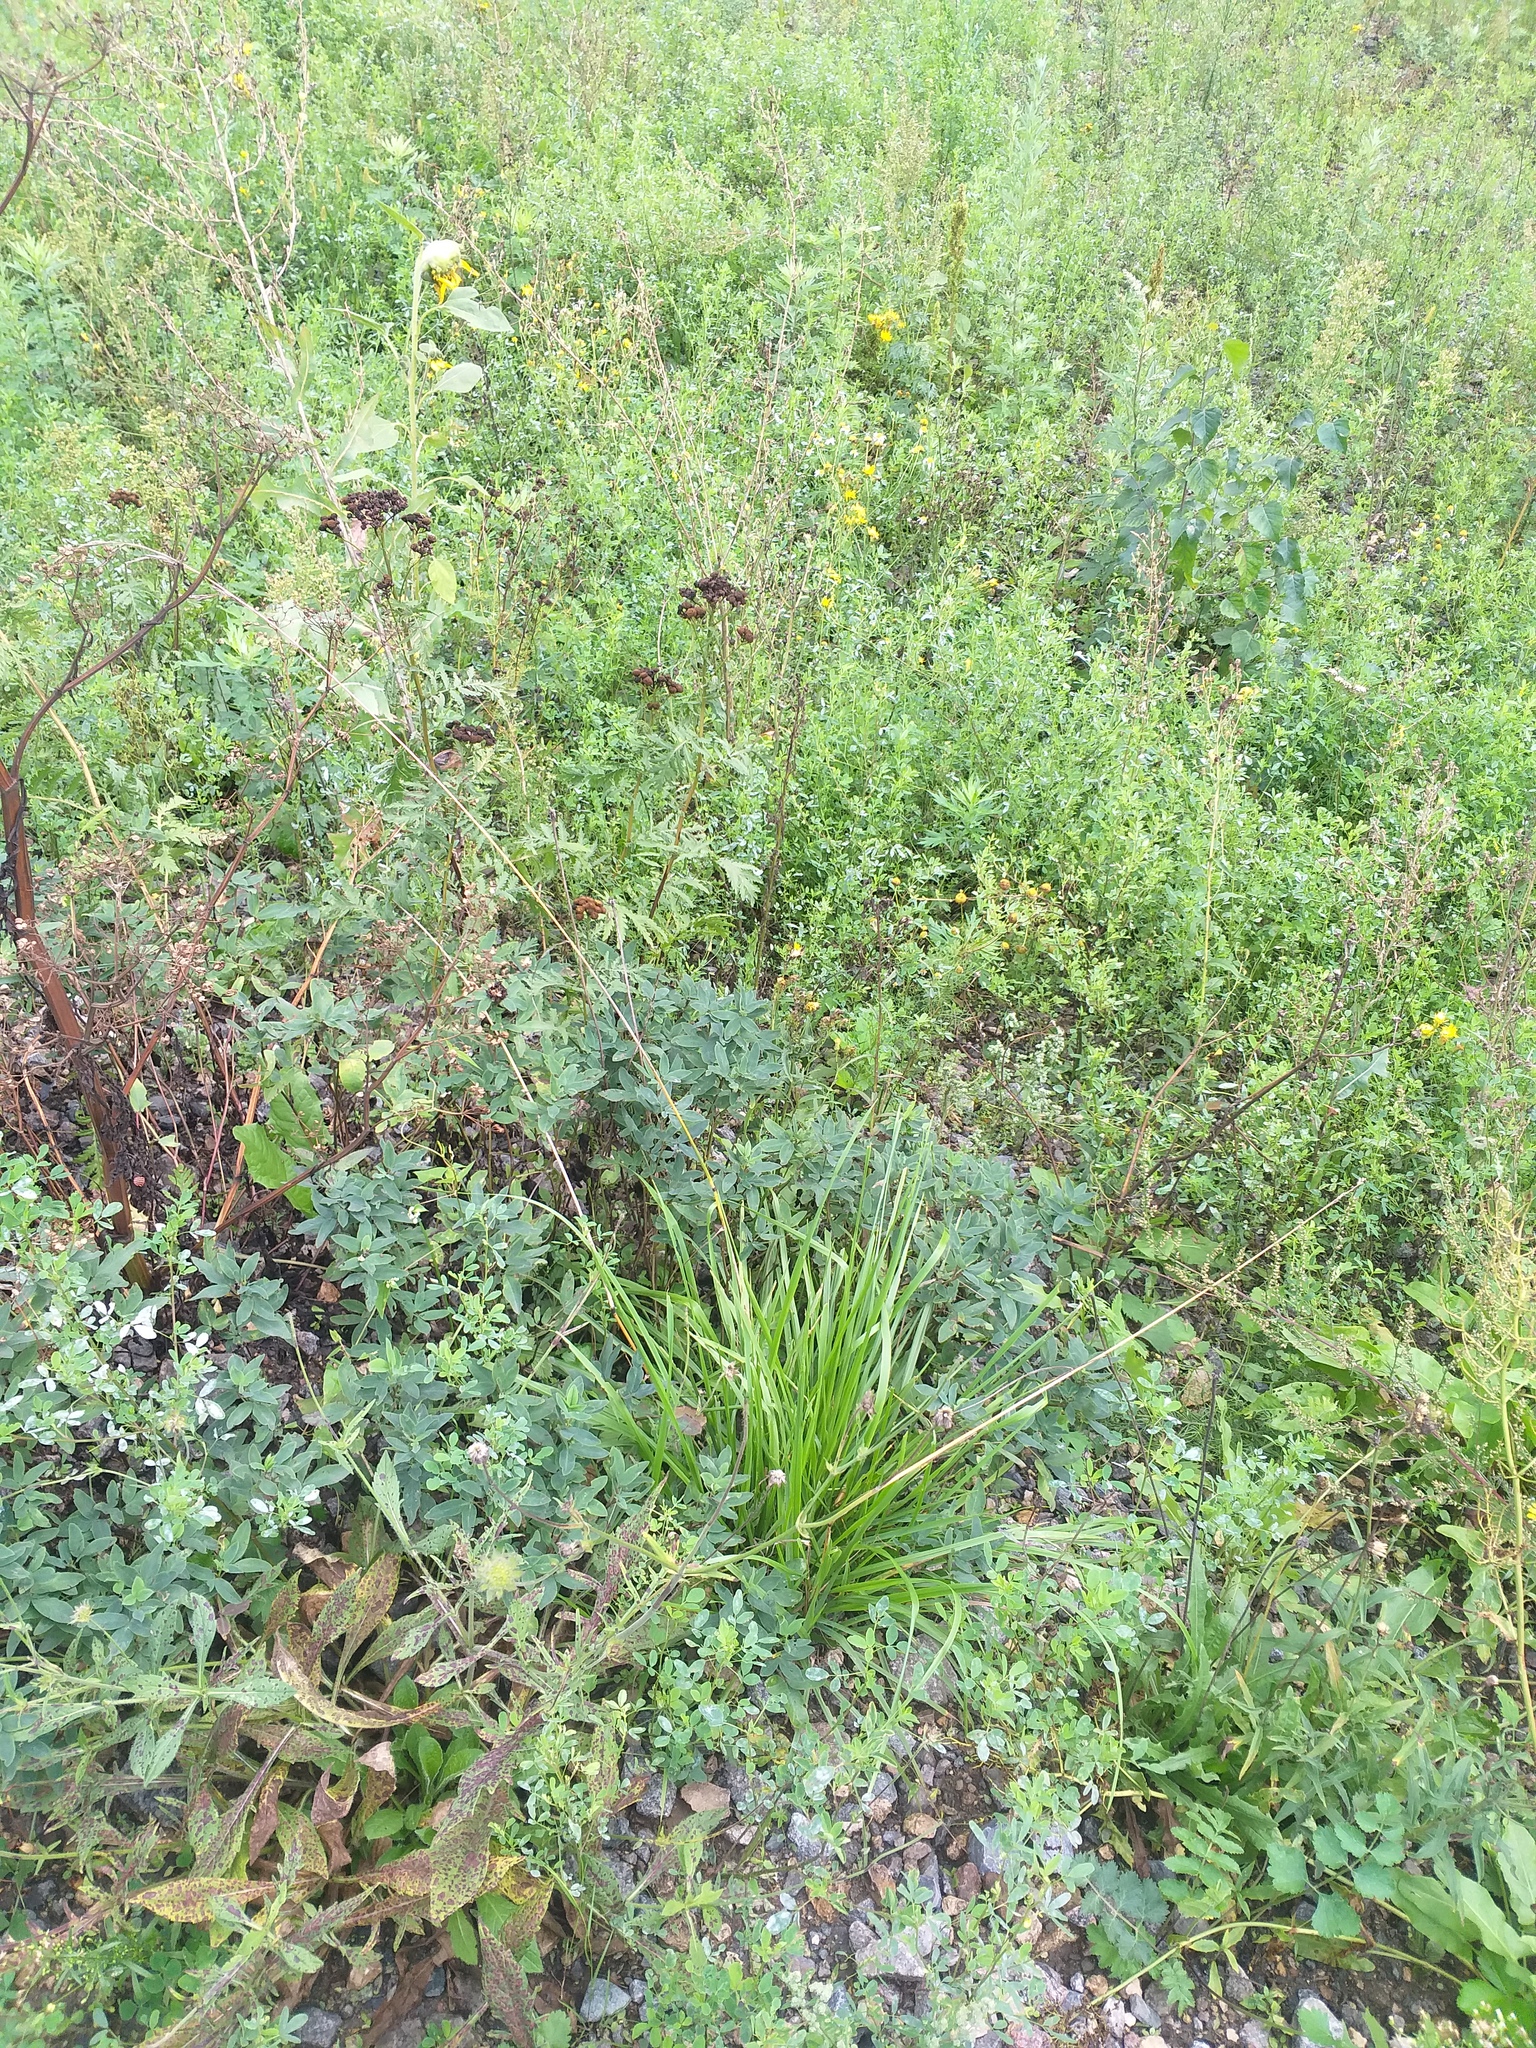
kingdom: Plantae
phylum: Tracheophyta
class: Liliopsida
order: Poales
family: Poaceae
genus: Lolium
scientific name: Lolium arundinaceum
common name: Reed fescue
